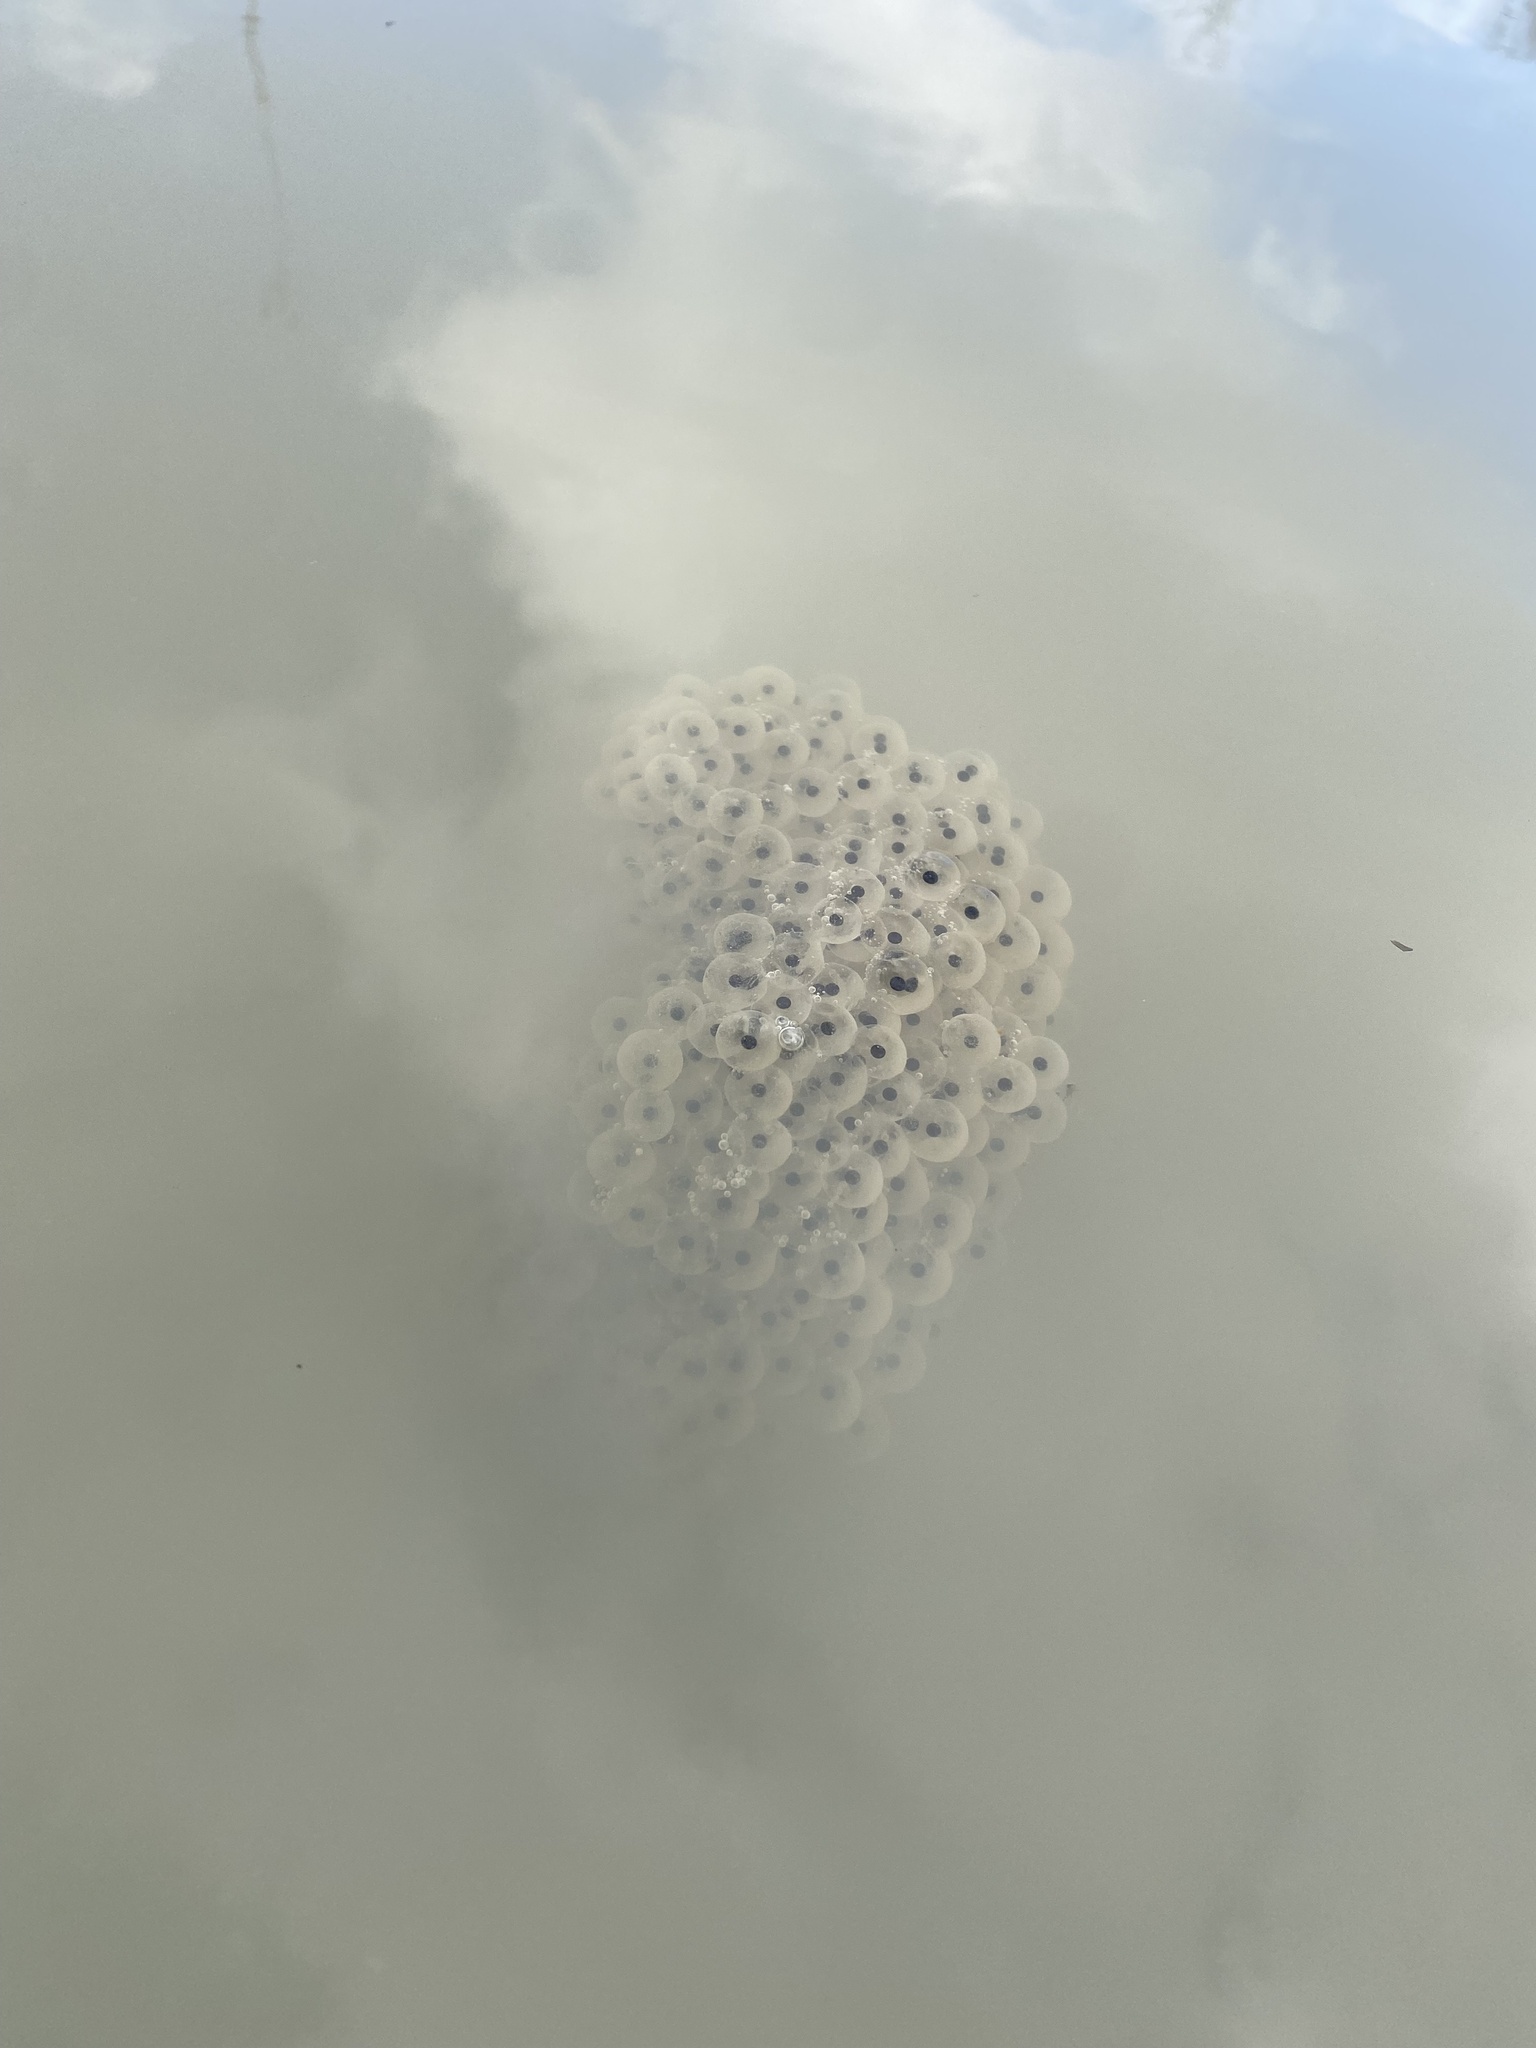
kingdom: Animalia
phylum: Chordata
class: Amphibia
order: Anura
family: Ranidae
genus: Rana
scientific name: Rana macrocnemis
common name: Banded frog
